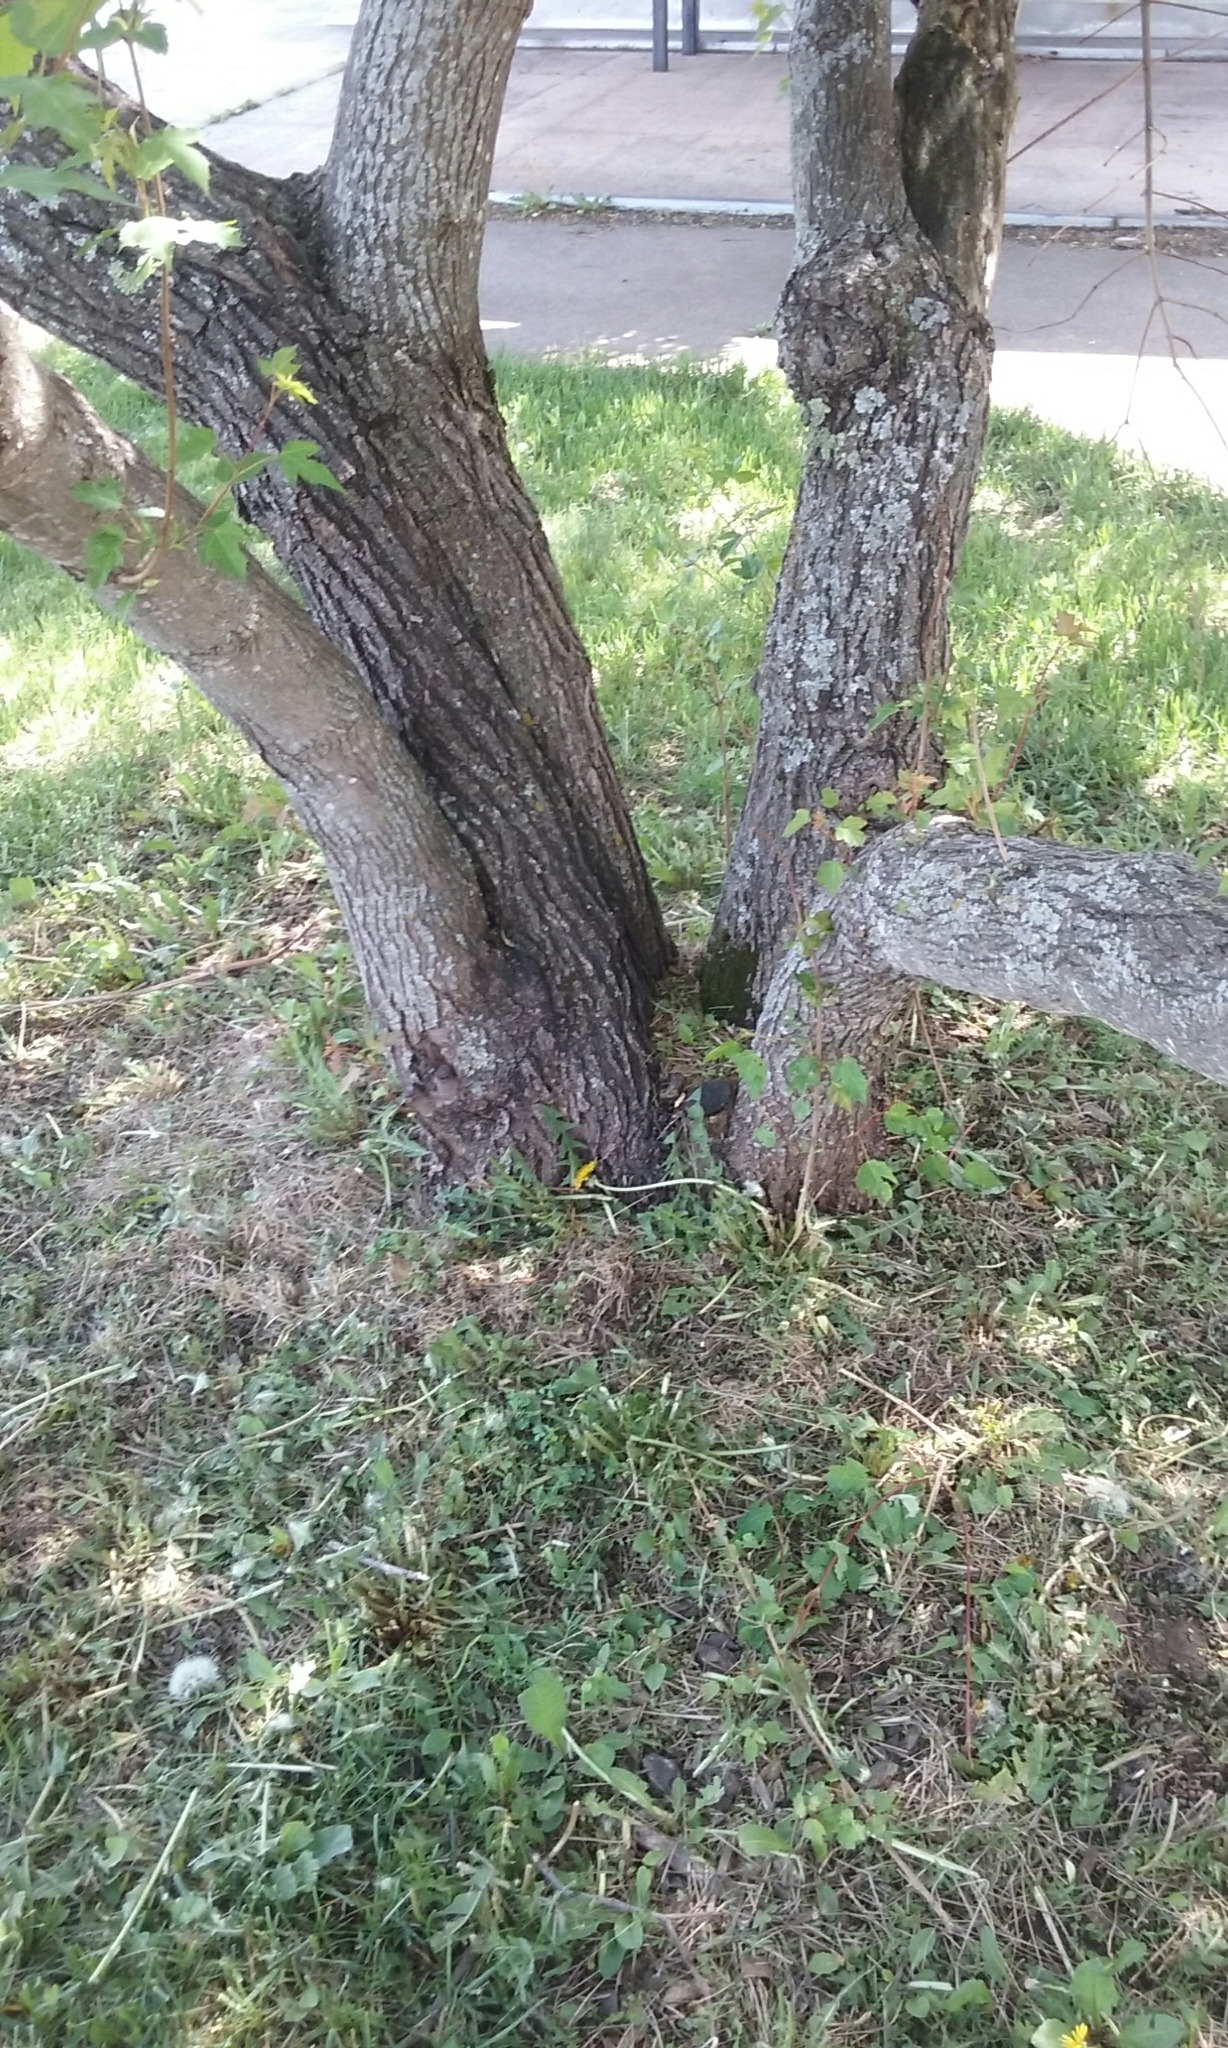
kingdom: Plantae
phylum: Tracheophyta
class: Magnoliopsida
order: Sapindales
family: Sapindaceae
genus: Acer
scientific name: Acer tataricum
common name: Tartar maple
